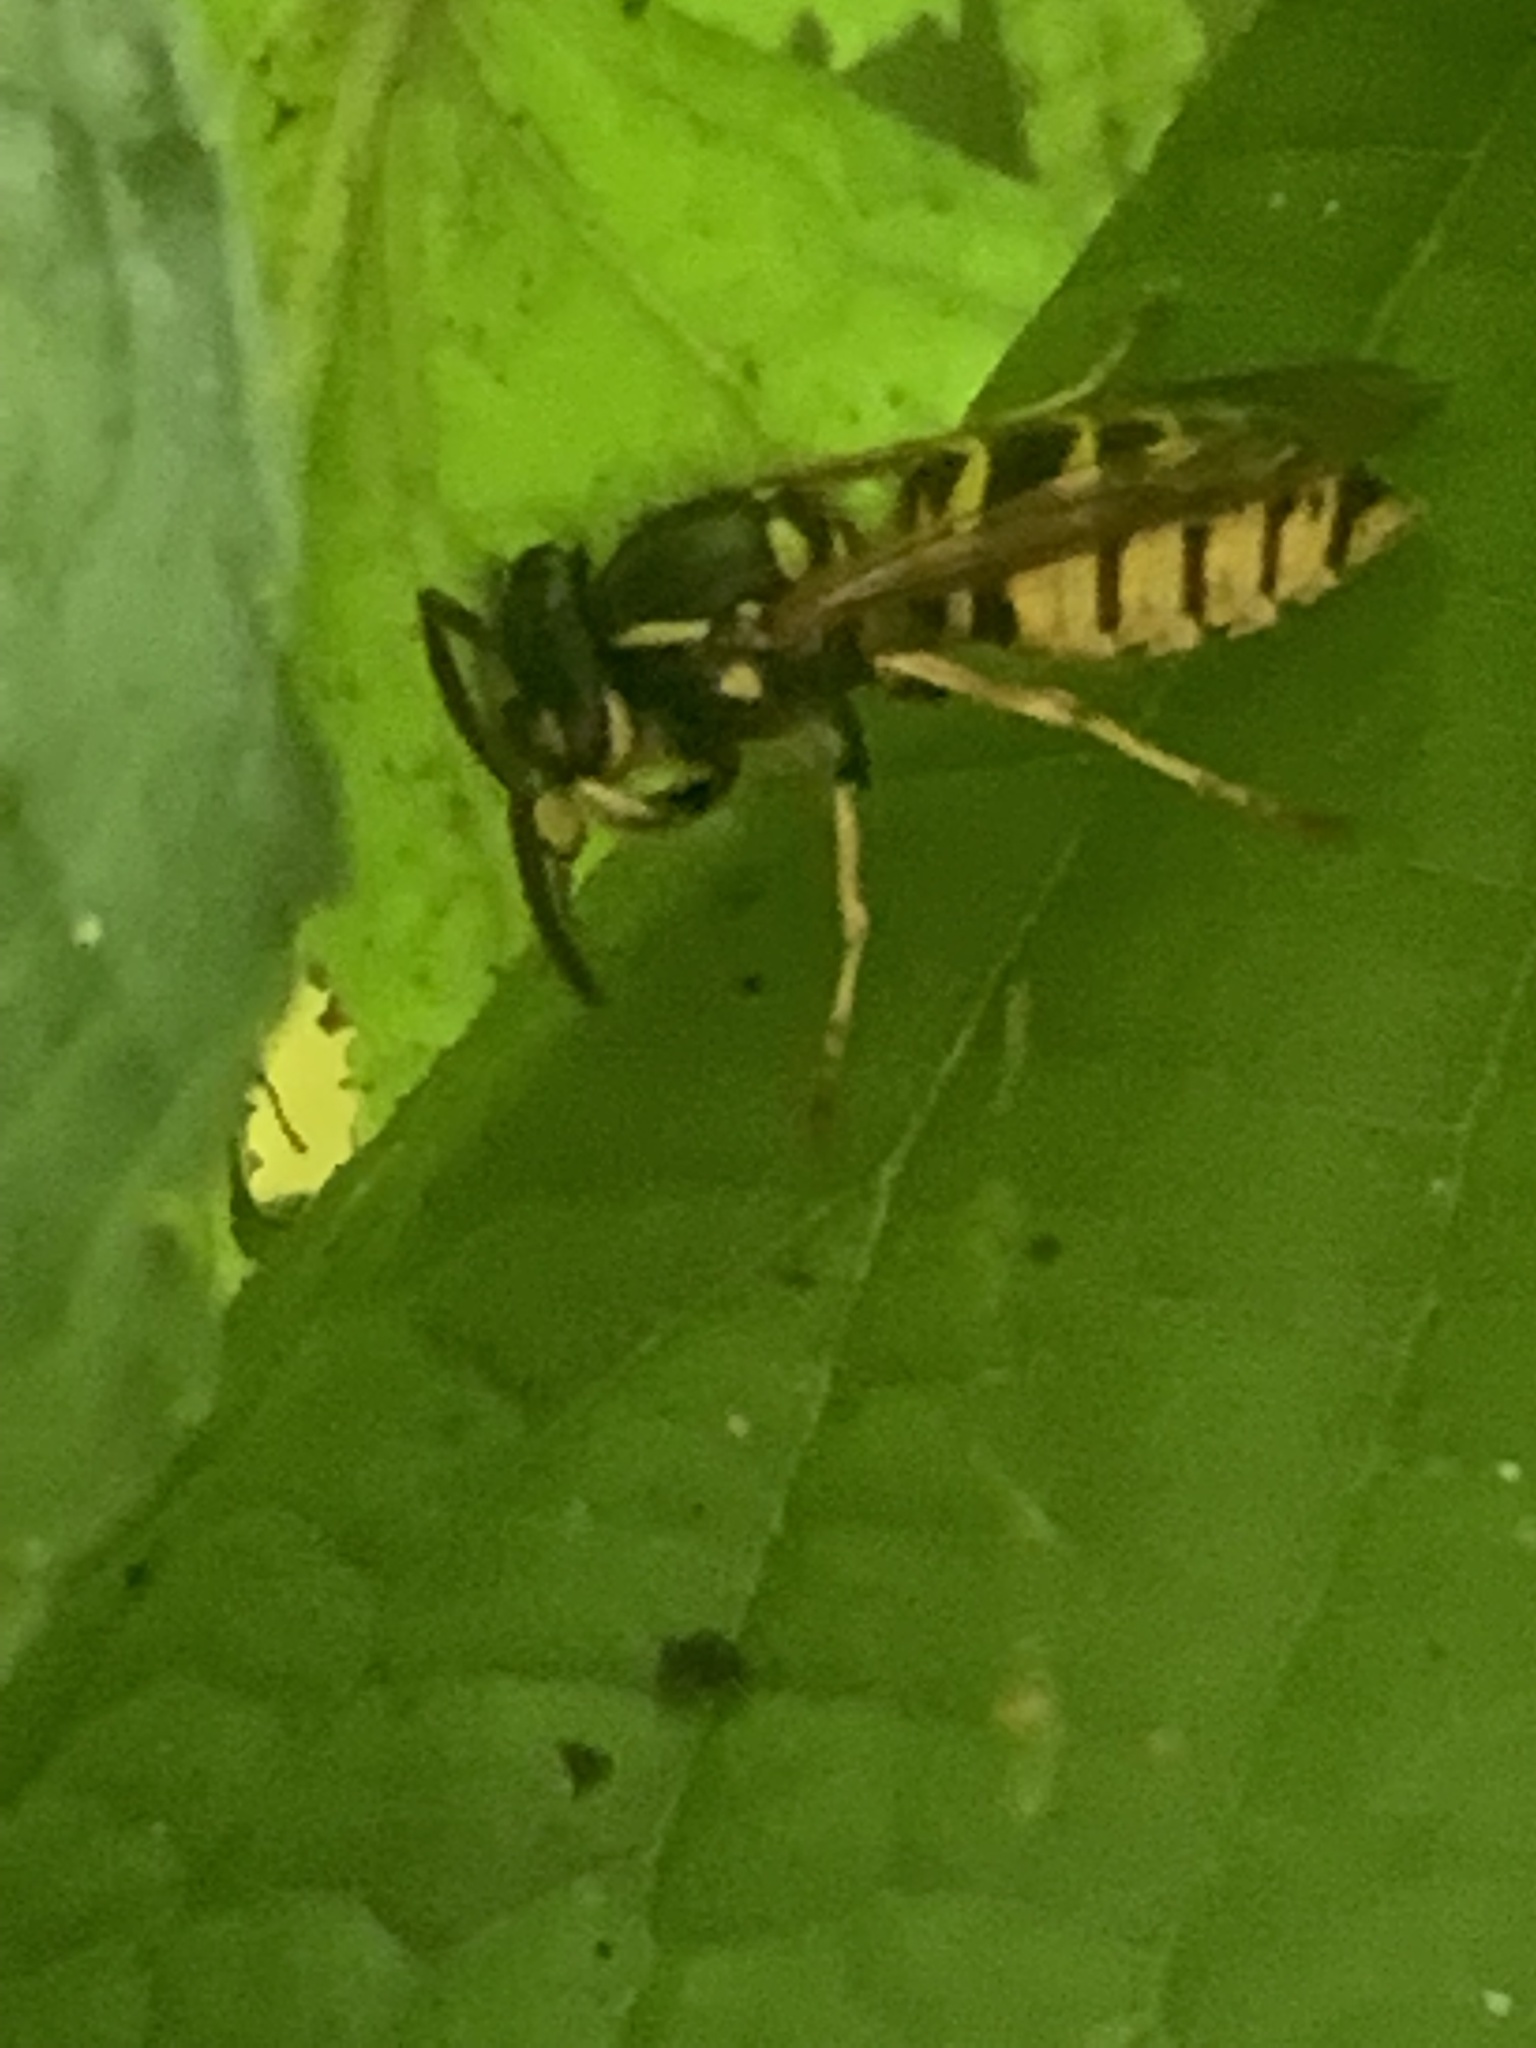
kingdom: Animalia
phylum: Arthropoda
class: Insecta
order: Hymenoptera
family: Vespidae
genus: Vespula
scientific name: Vespula vulgaris
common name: Common wasp
